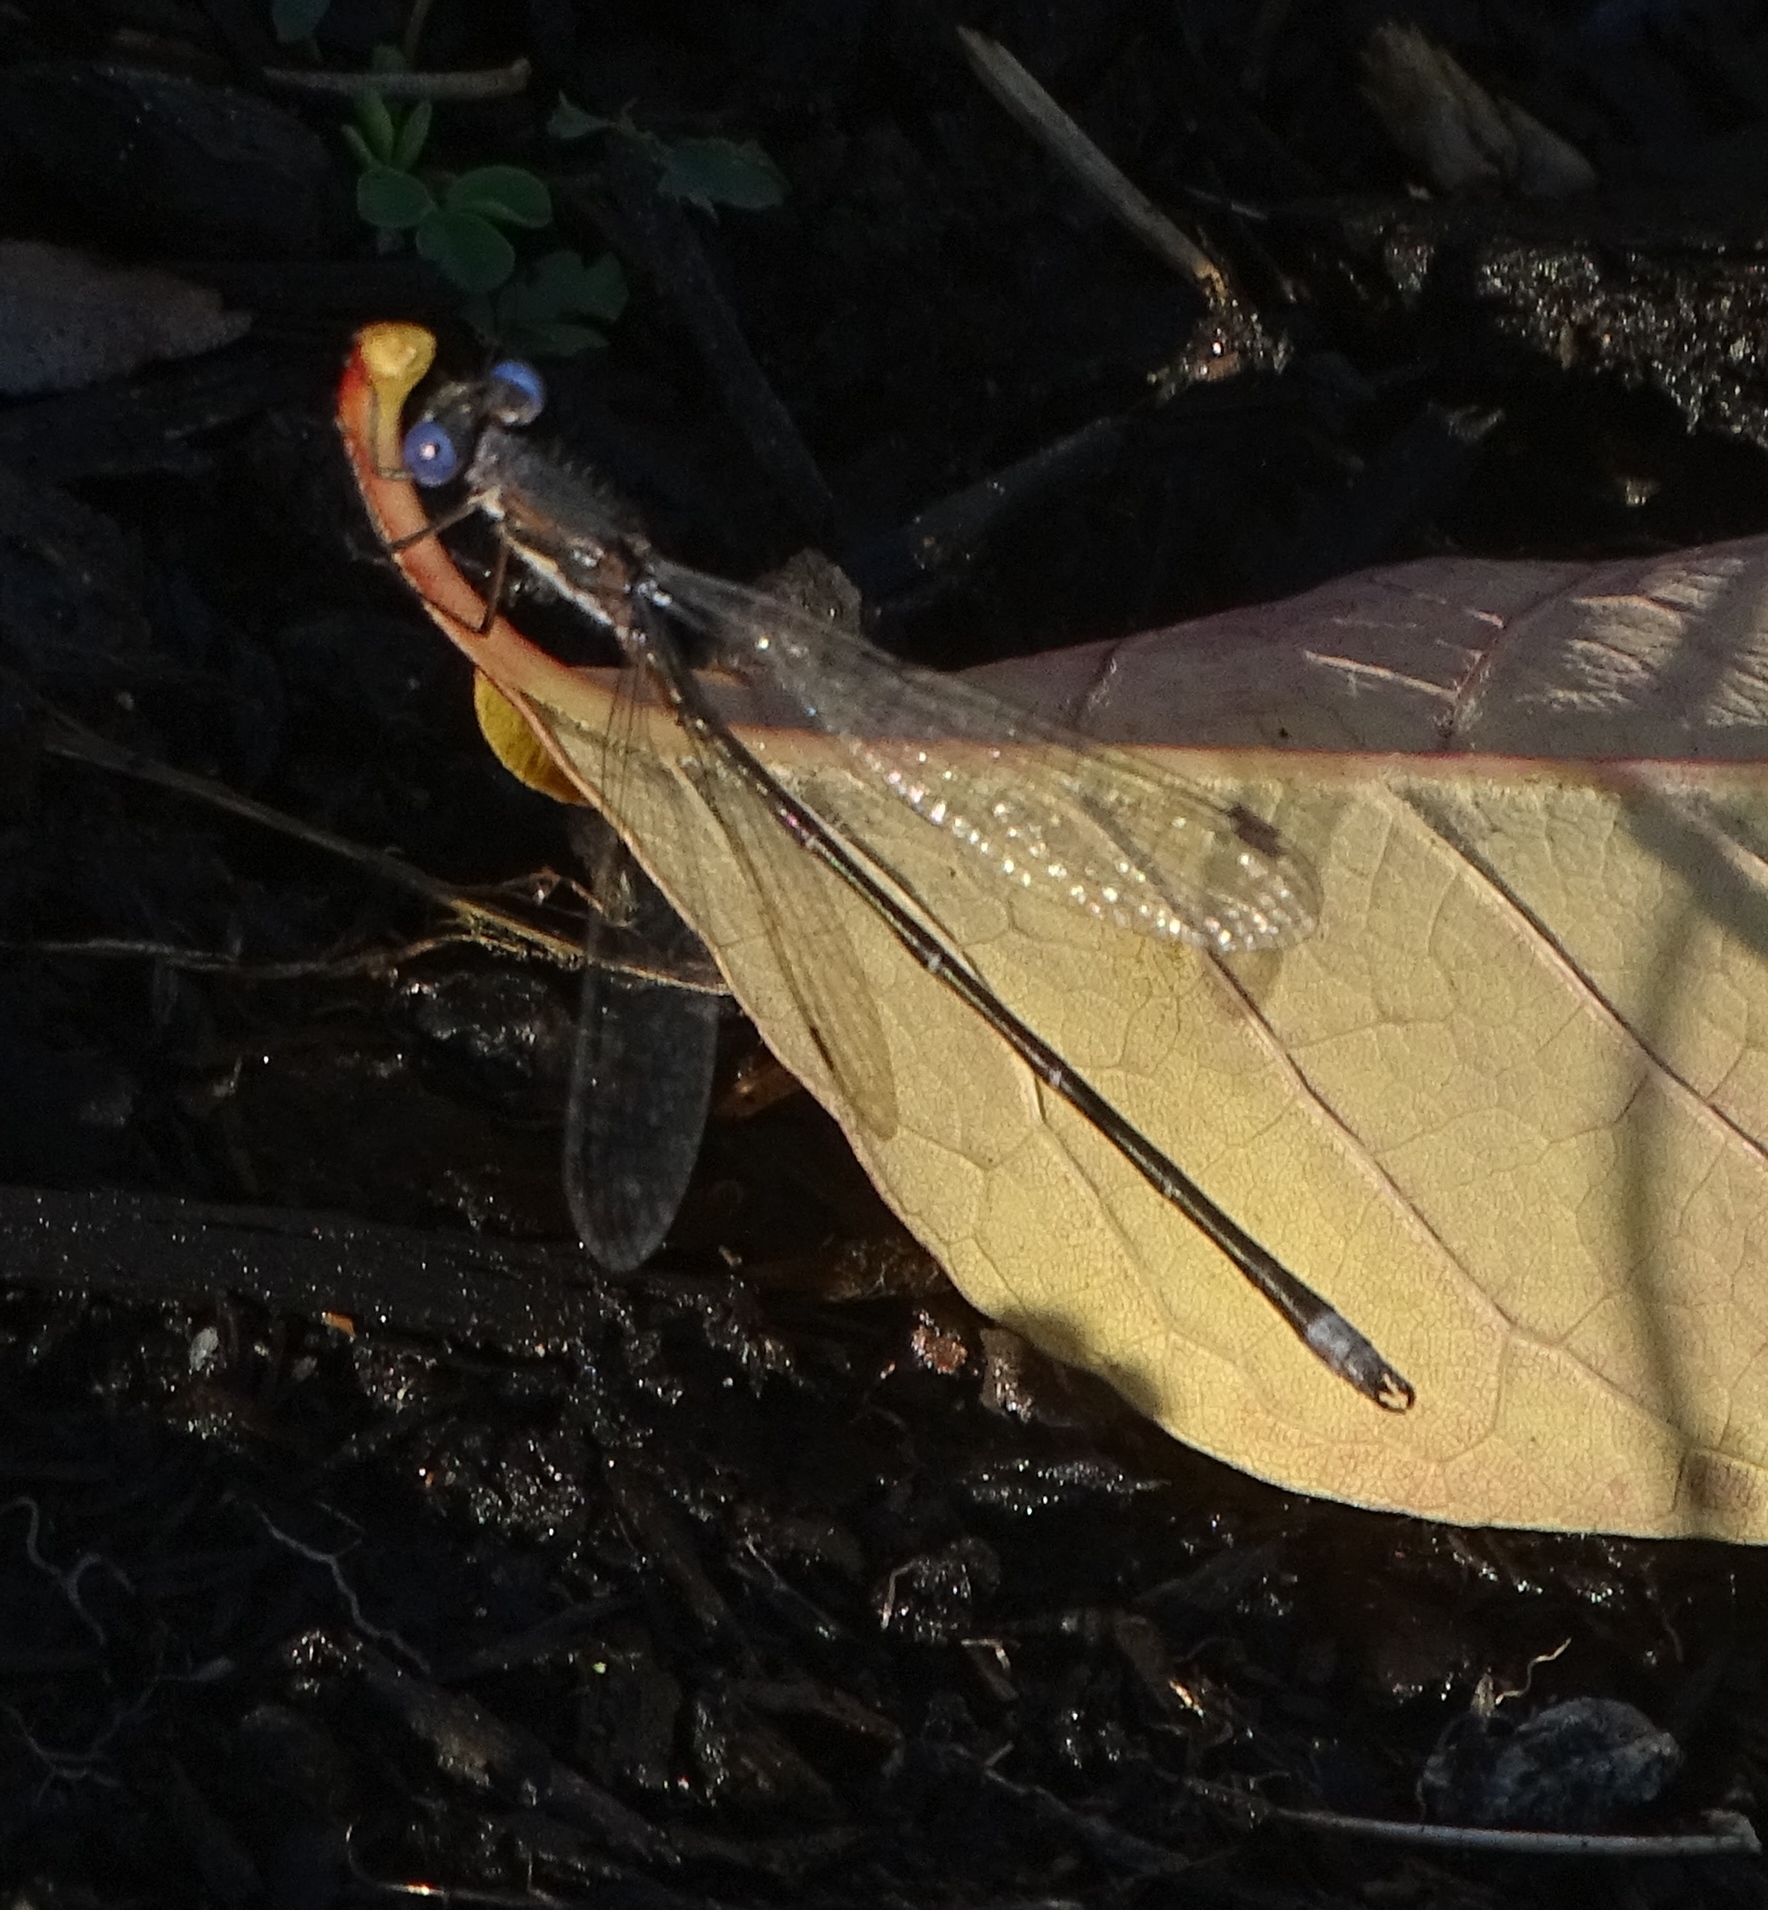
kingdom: Animalia
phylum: Arthropoda
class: Insecta
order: Odonata
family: Lestidae
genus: Lestes
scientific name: Lestes congener
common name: Spotted spreadwing
